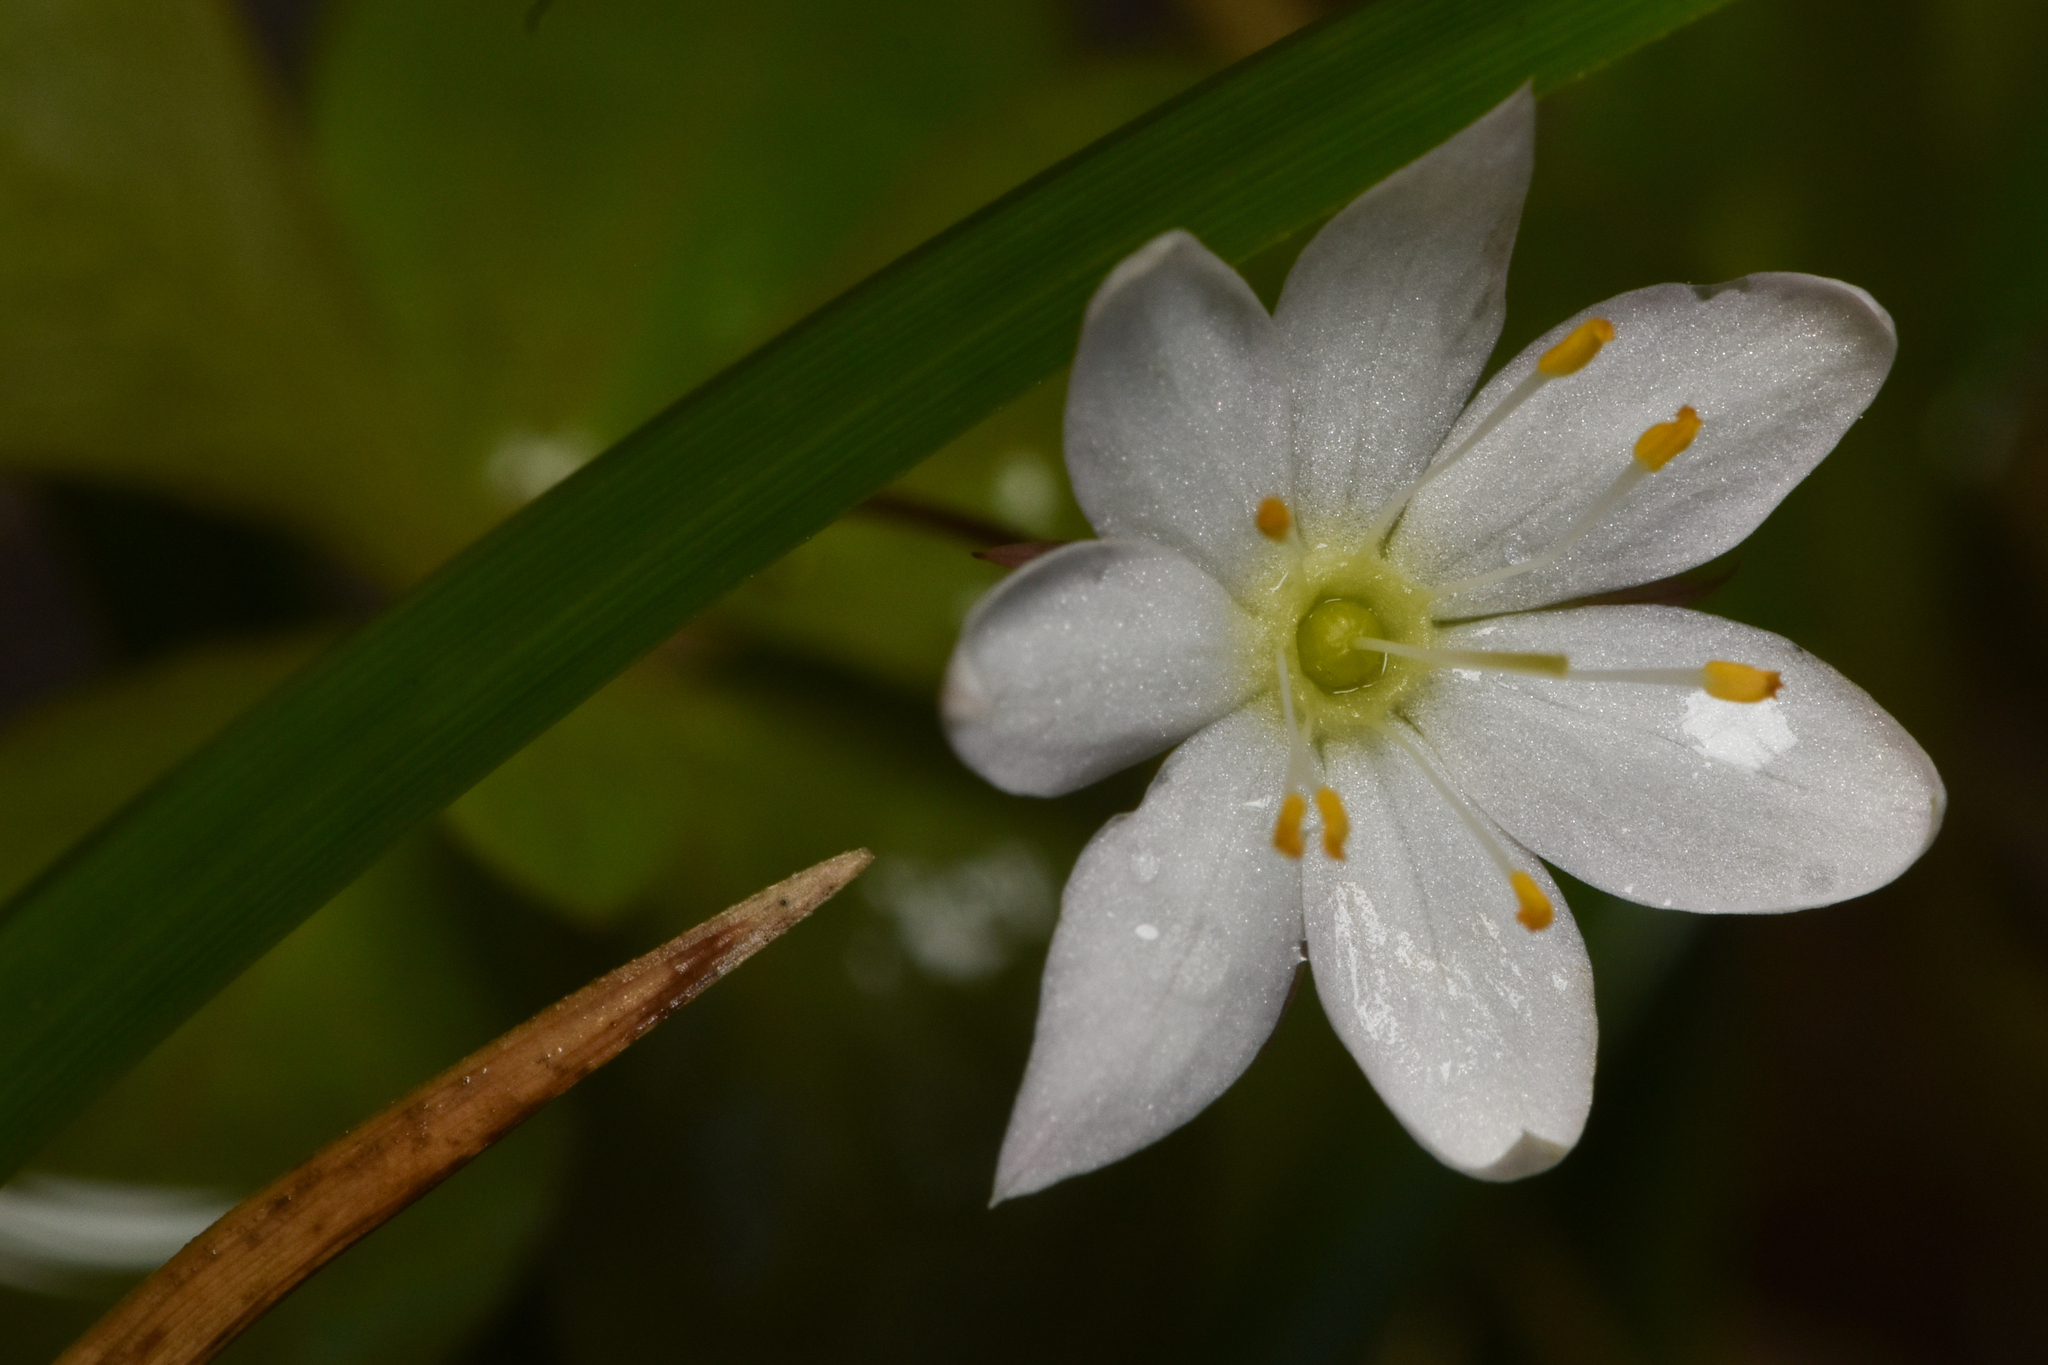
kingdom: Plantae
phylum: Tracheophyta
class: Magnoliopsida
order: Ericales
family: Primulaceae
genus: Lysimachia
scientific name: Lysimachia europaea
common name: Arctic starflower
